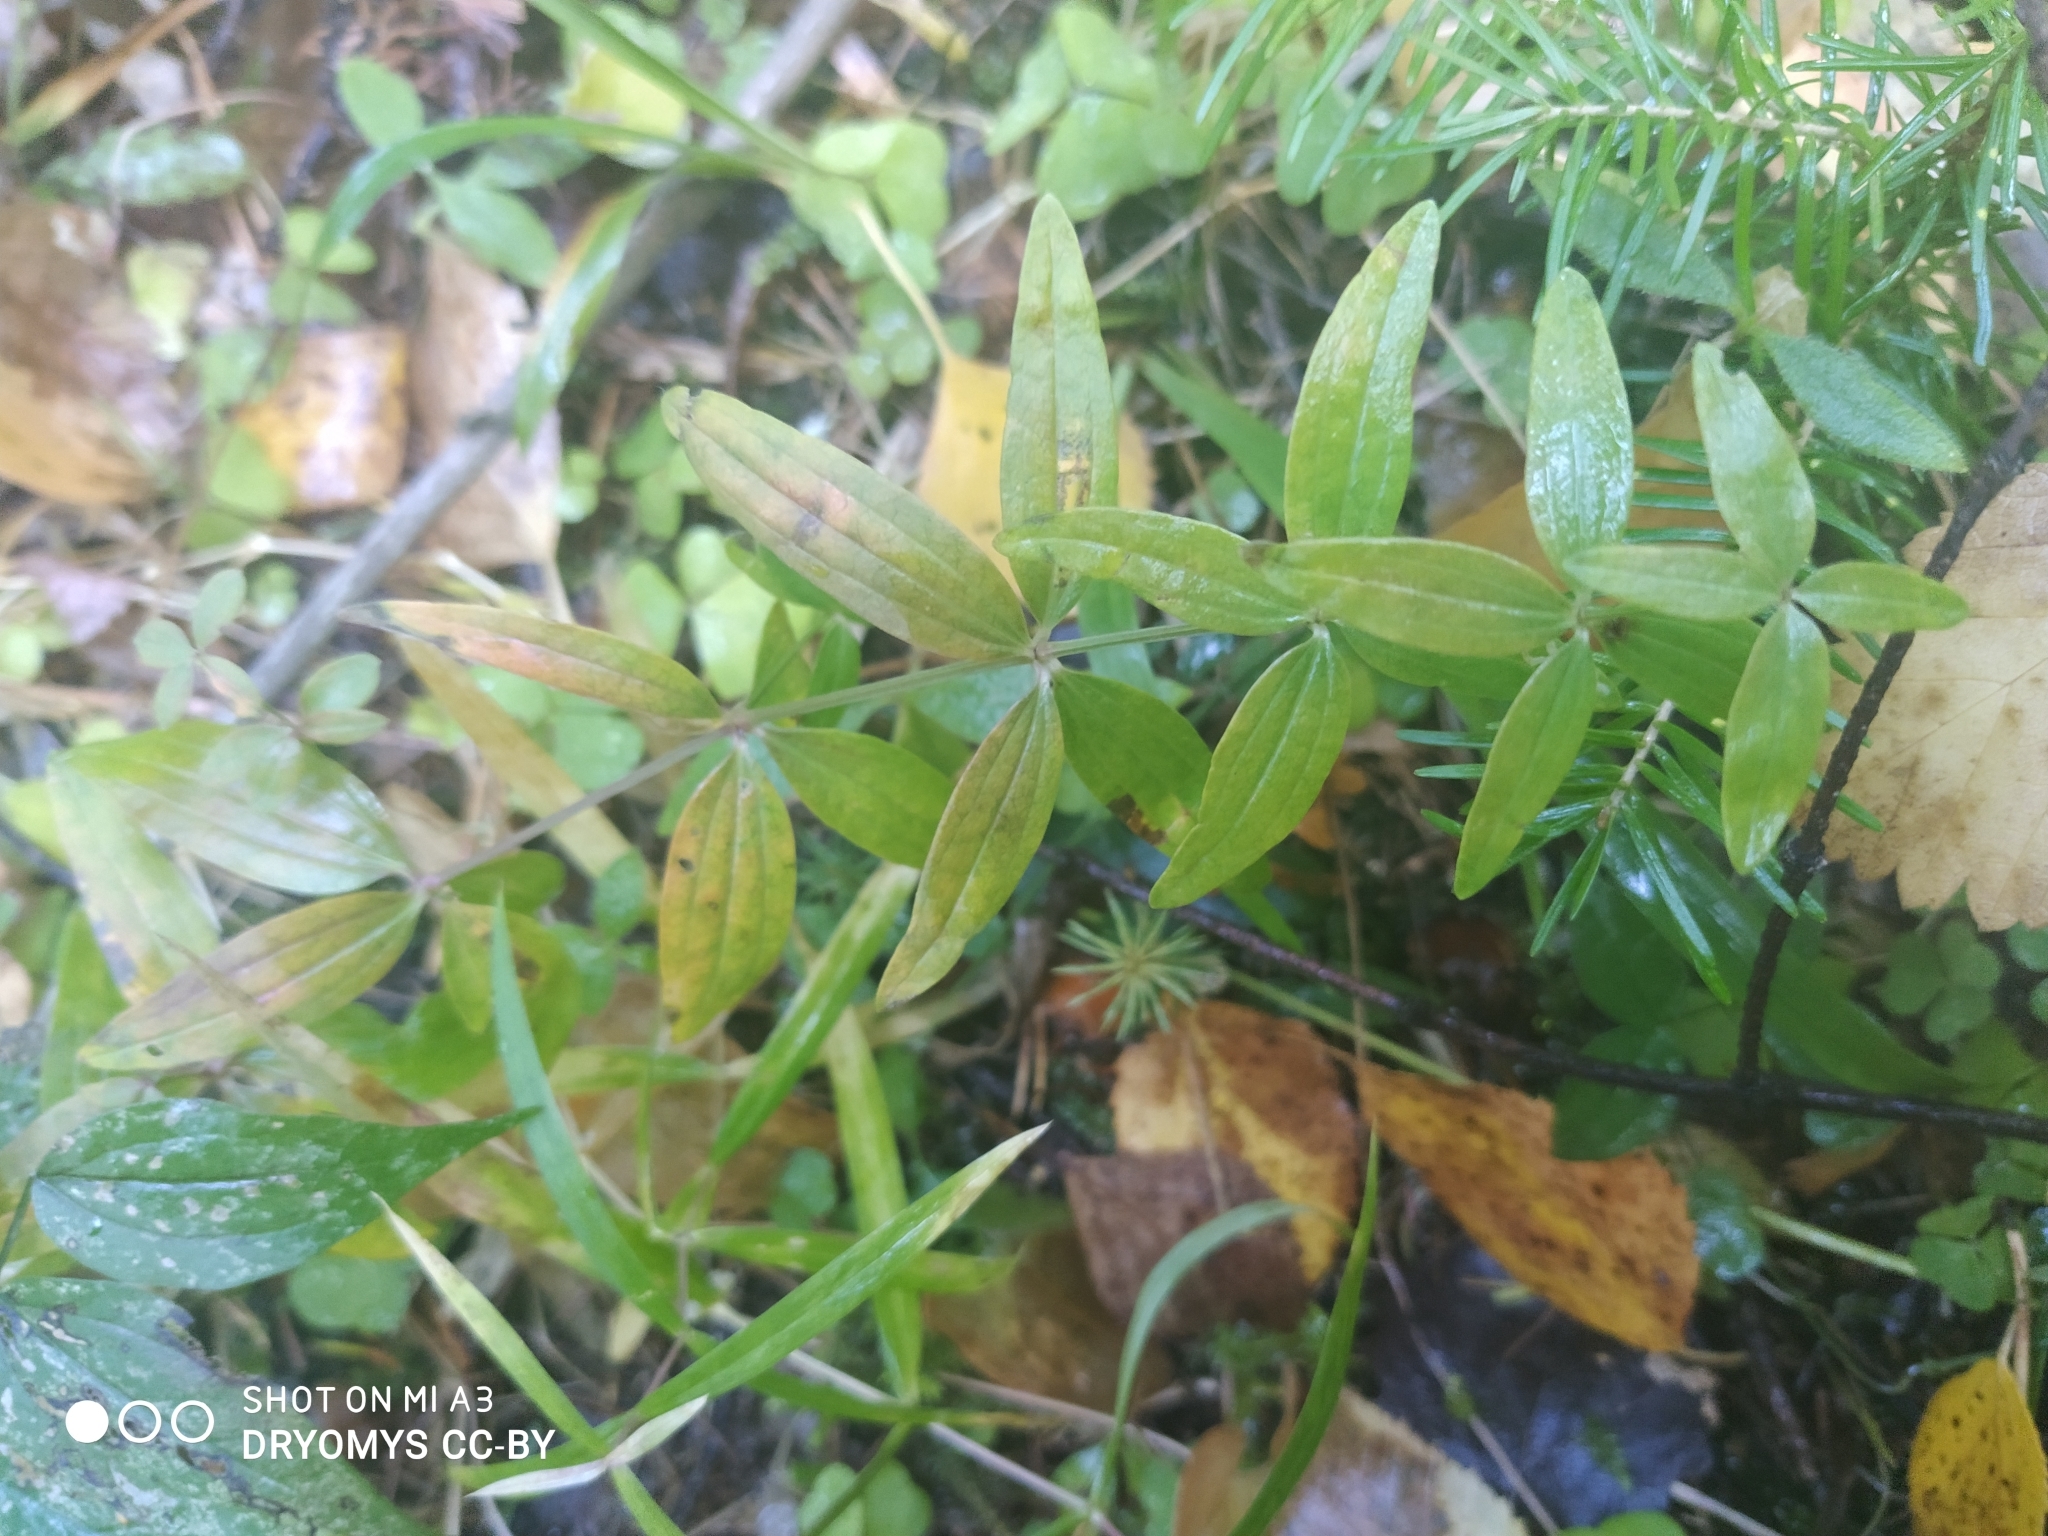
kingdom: Plantae
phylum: Tracheophyta
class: Magnoliopsida
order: Gentianales
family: Rubiaceae
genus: Galium
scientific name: Galium boreale
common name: Northern bedstraw
